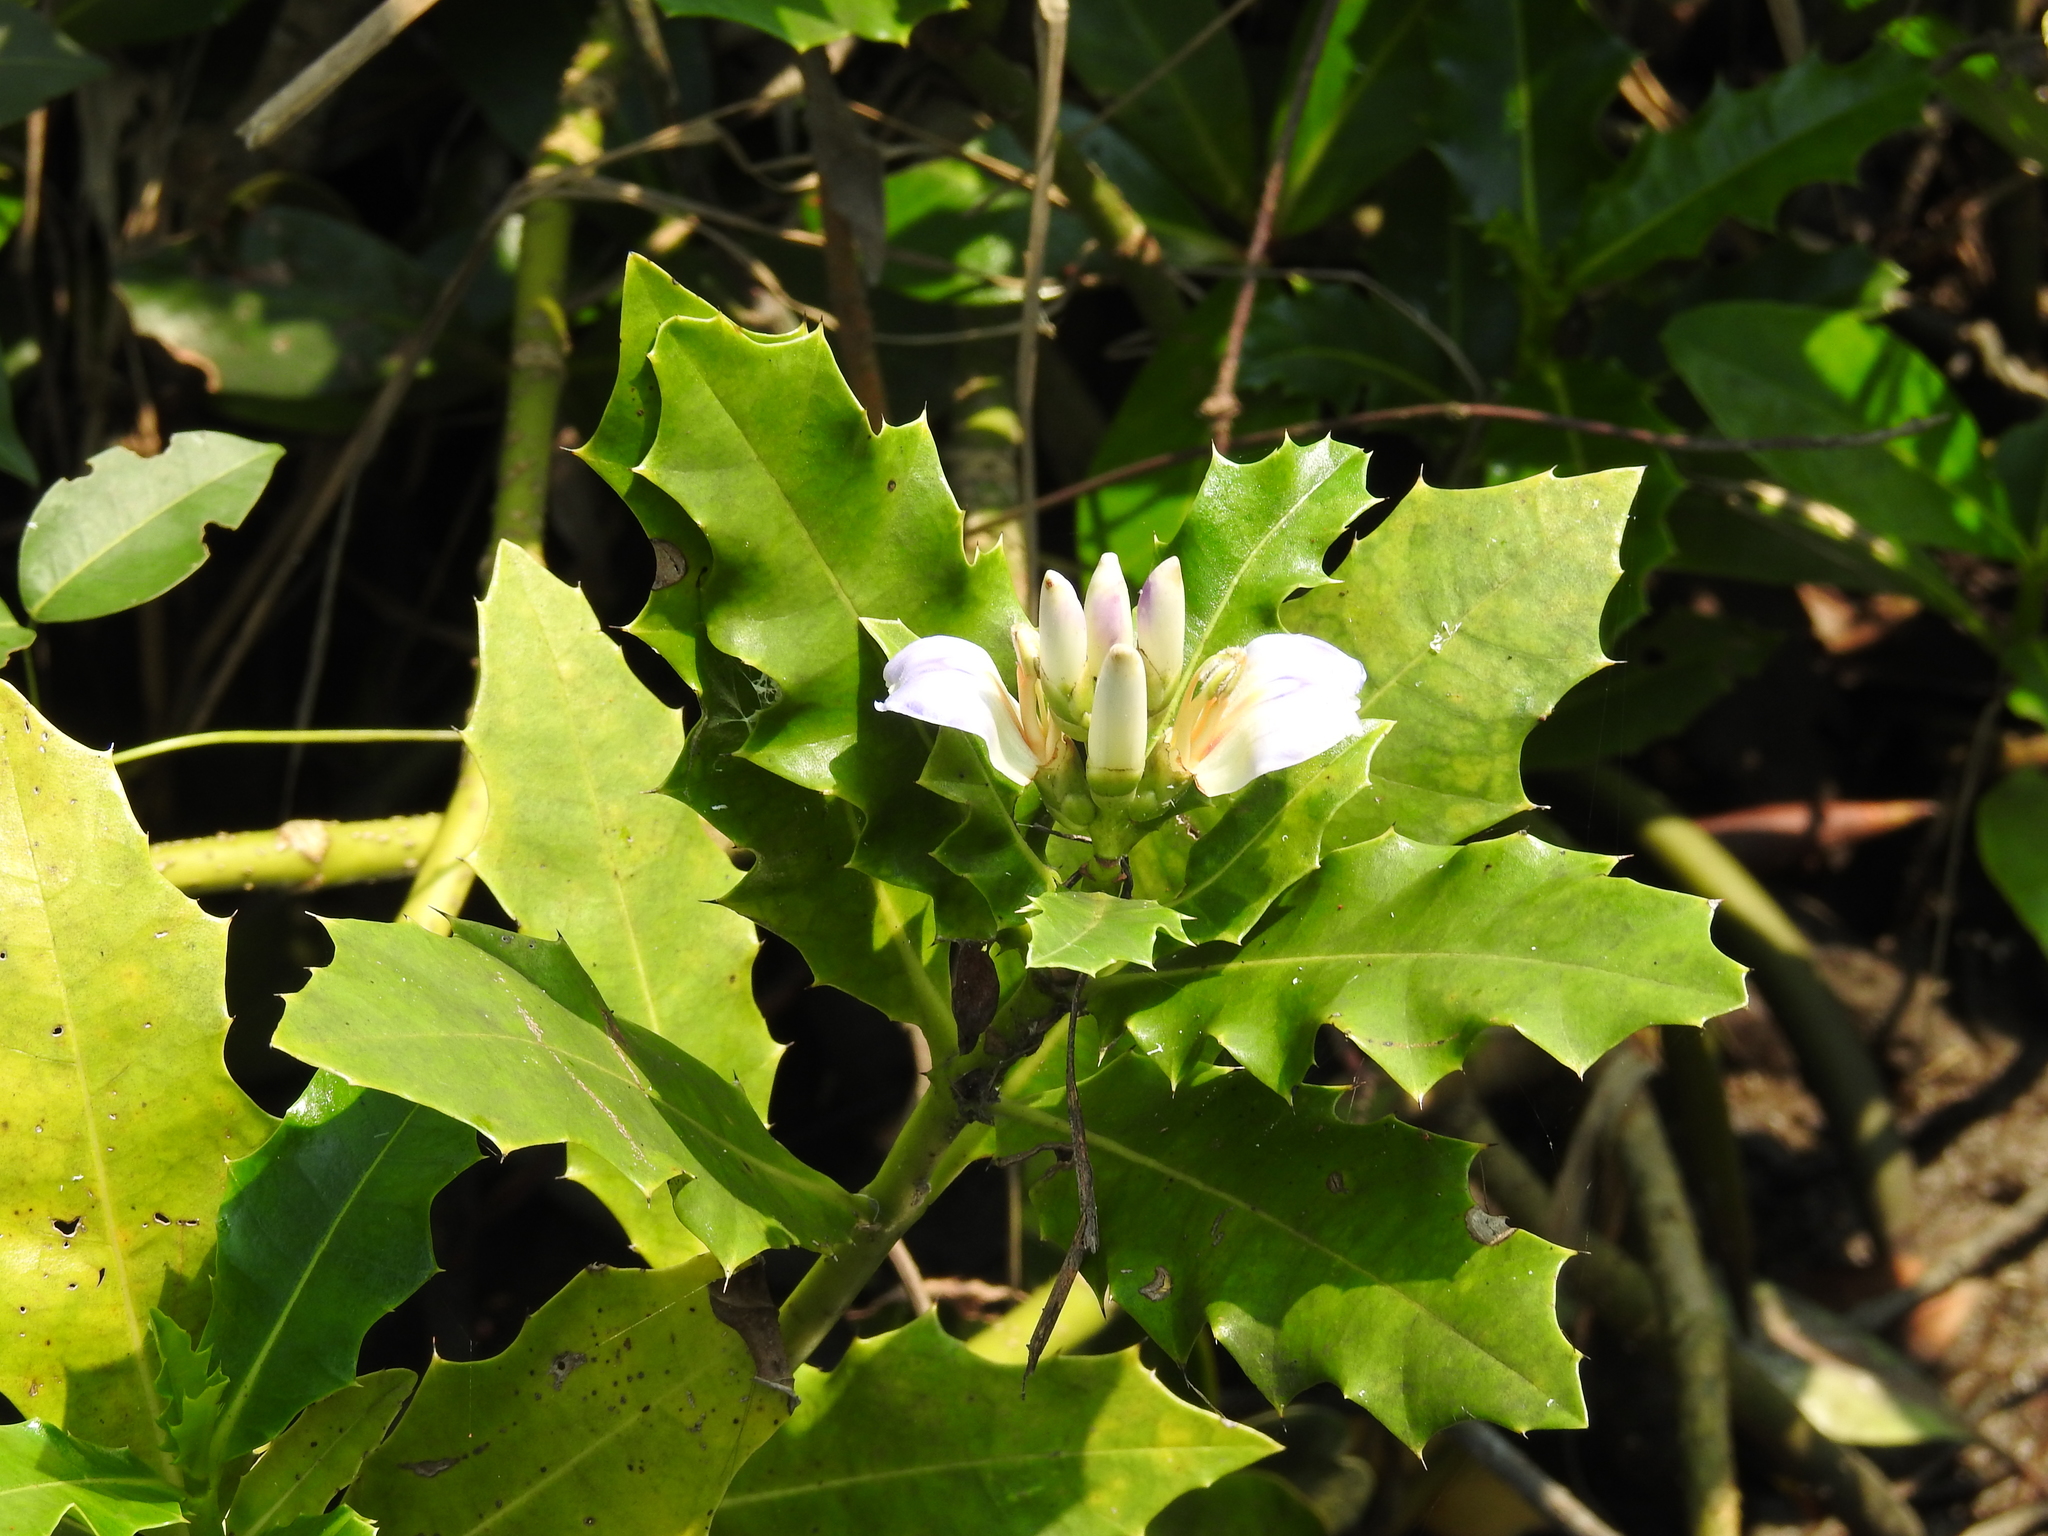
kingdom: Plantae
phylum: Tracheophyta
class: Magnoliopsida
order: Lamiales
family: Acanthaceae
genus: Acanthus
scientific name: Acanthus ilicifolius
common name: Holy mangrove
